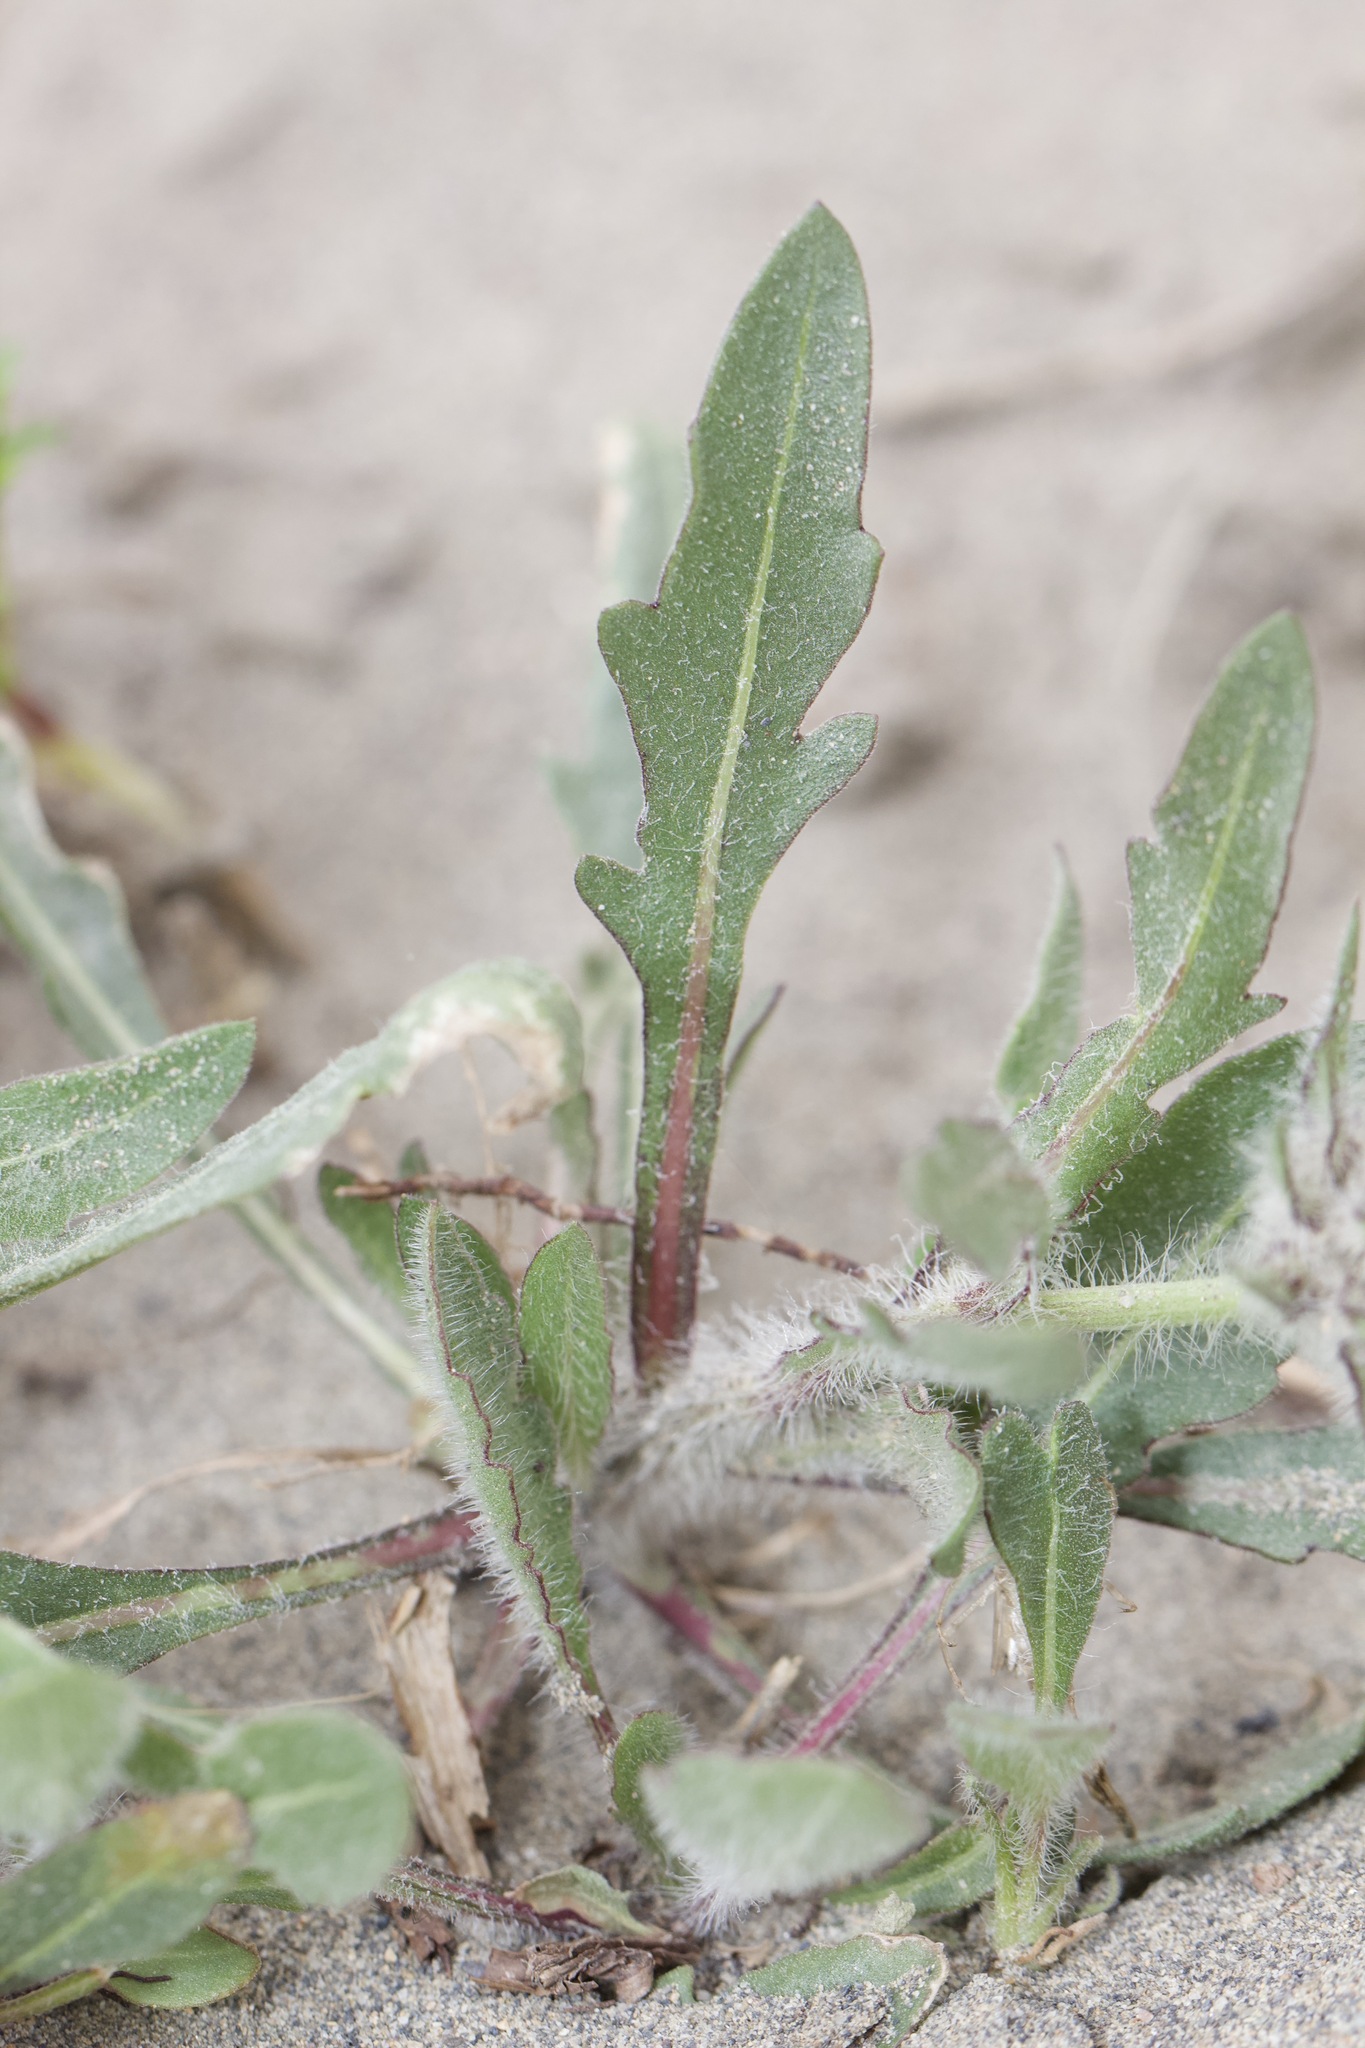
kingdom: Plantae
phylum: Tracheophyta
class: Magnoliopsida
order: Asterales
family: Asteraceae
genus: Gaillardia
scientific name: Gaillardia aristata
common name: Blanket-flower
